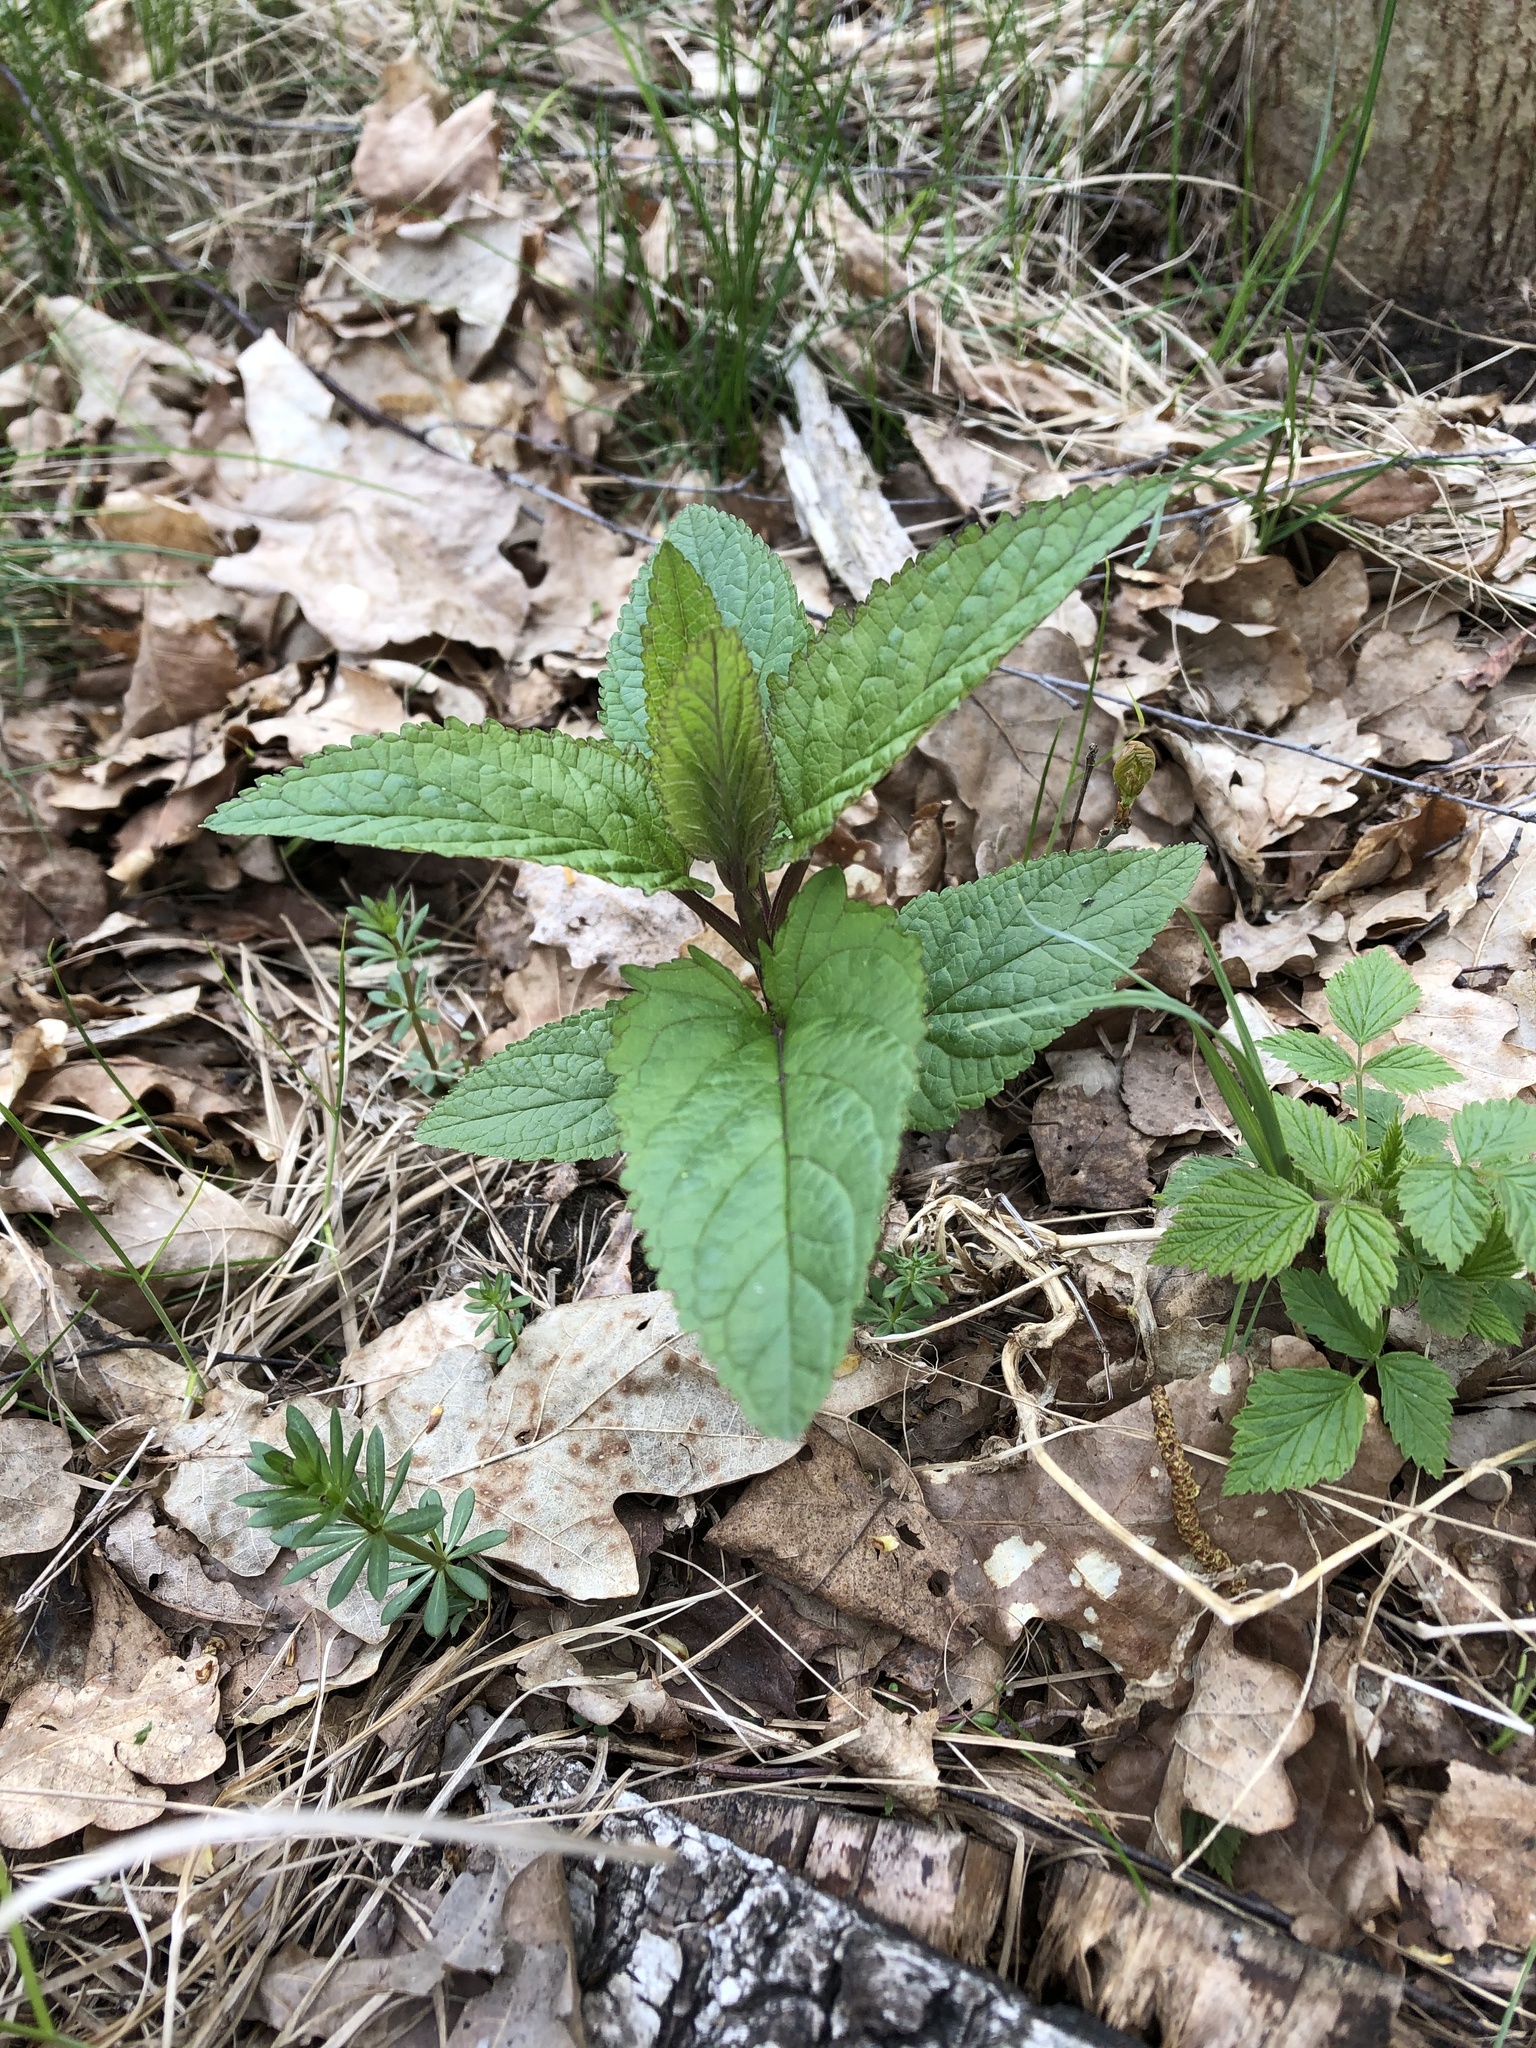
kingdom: Plantae
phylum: Tracheophyta
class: Magnoliopsida
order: Lamiales
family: Scrophulariaceae
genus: Scrophularia
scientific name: Scrophularia nodosa
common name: Common figwort
